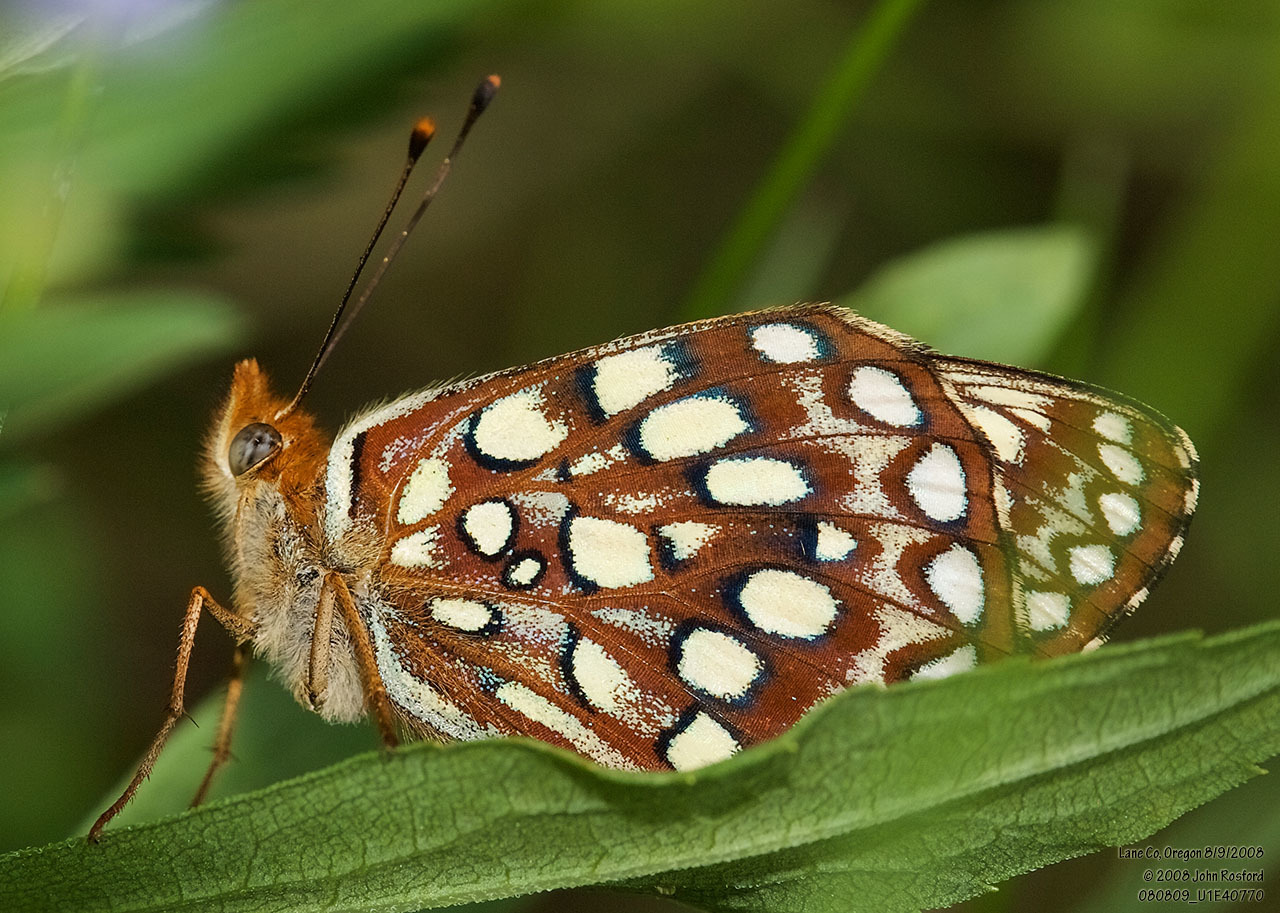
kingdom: Animalia
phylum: Arthropoda
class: Insecta
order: Lepidoptera
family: Nymphalidae
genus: Speyeria
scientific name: Speyeria atlantis
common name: Atlantis fritillary
